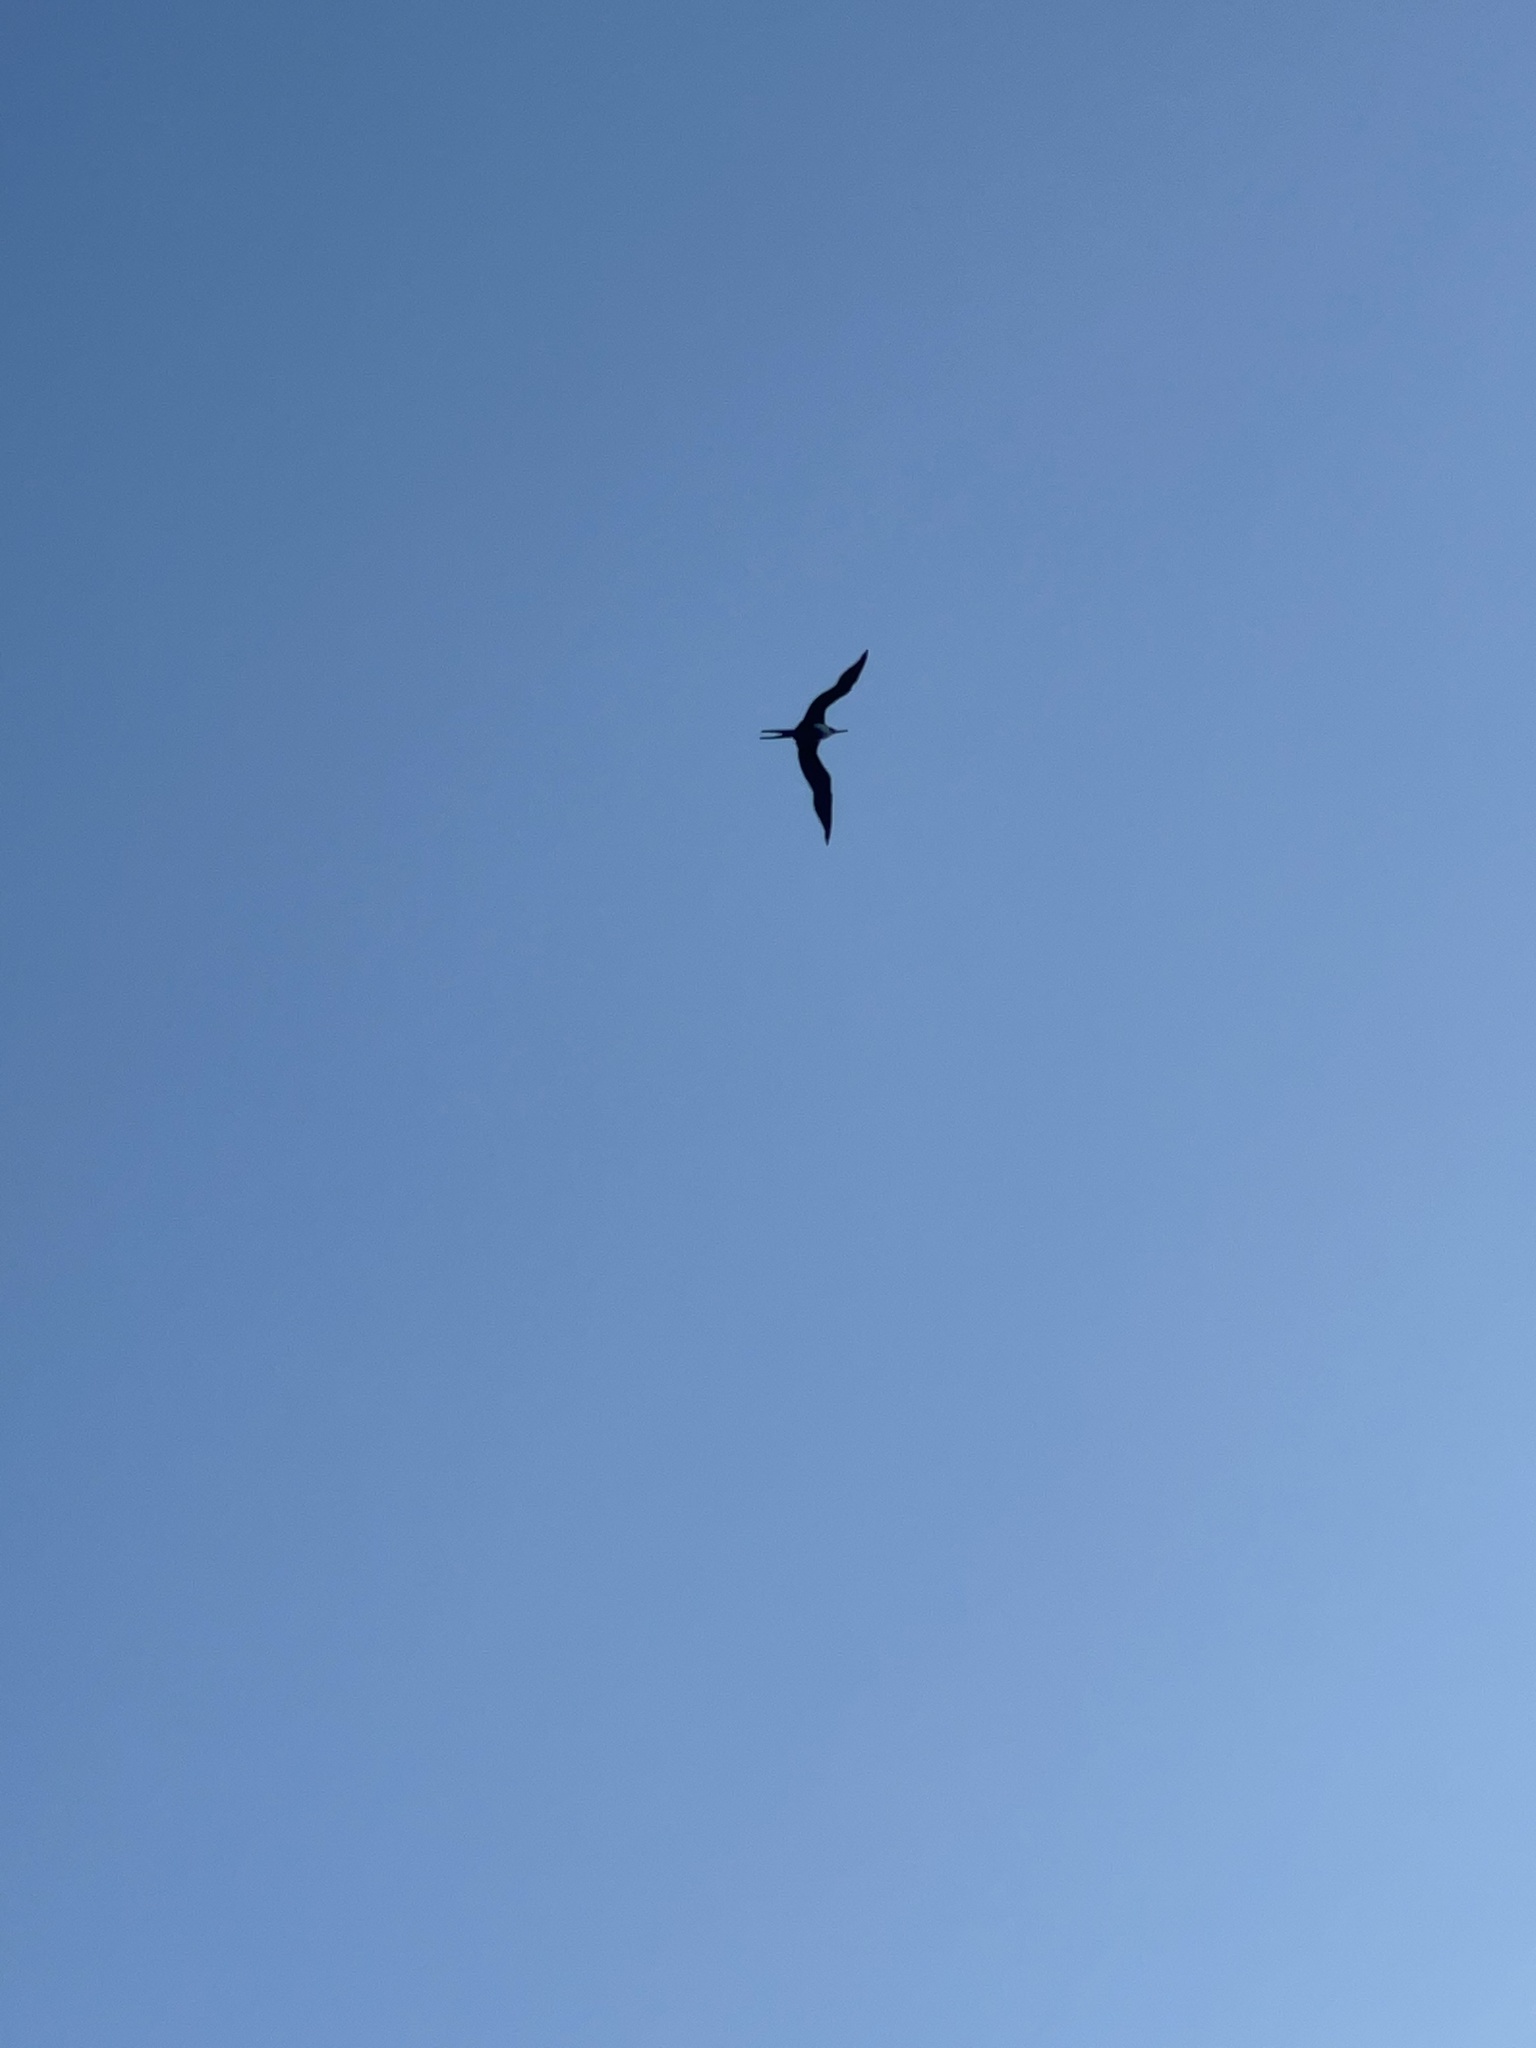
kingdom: Animalia
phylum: Chordata
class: Aves
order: Suliformes
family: Fregatidae
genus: Fregata
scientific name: Fregata minor
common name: Great frigatebird
